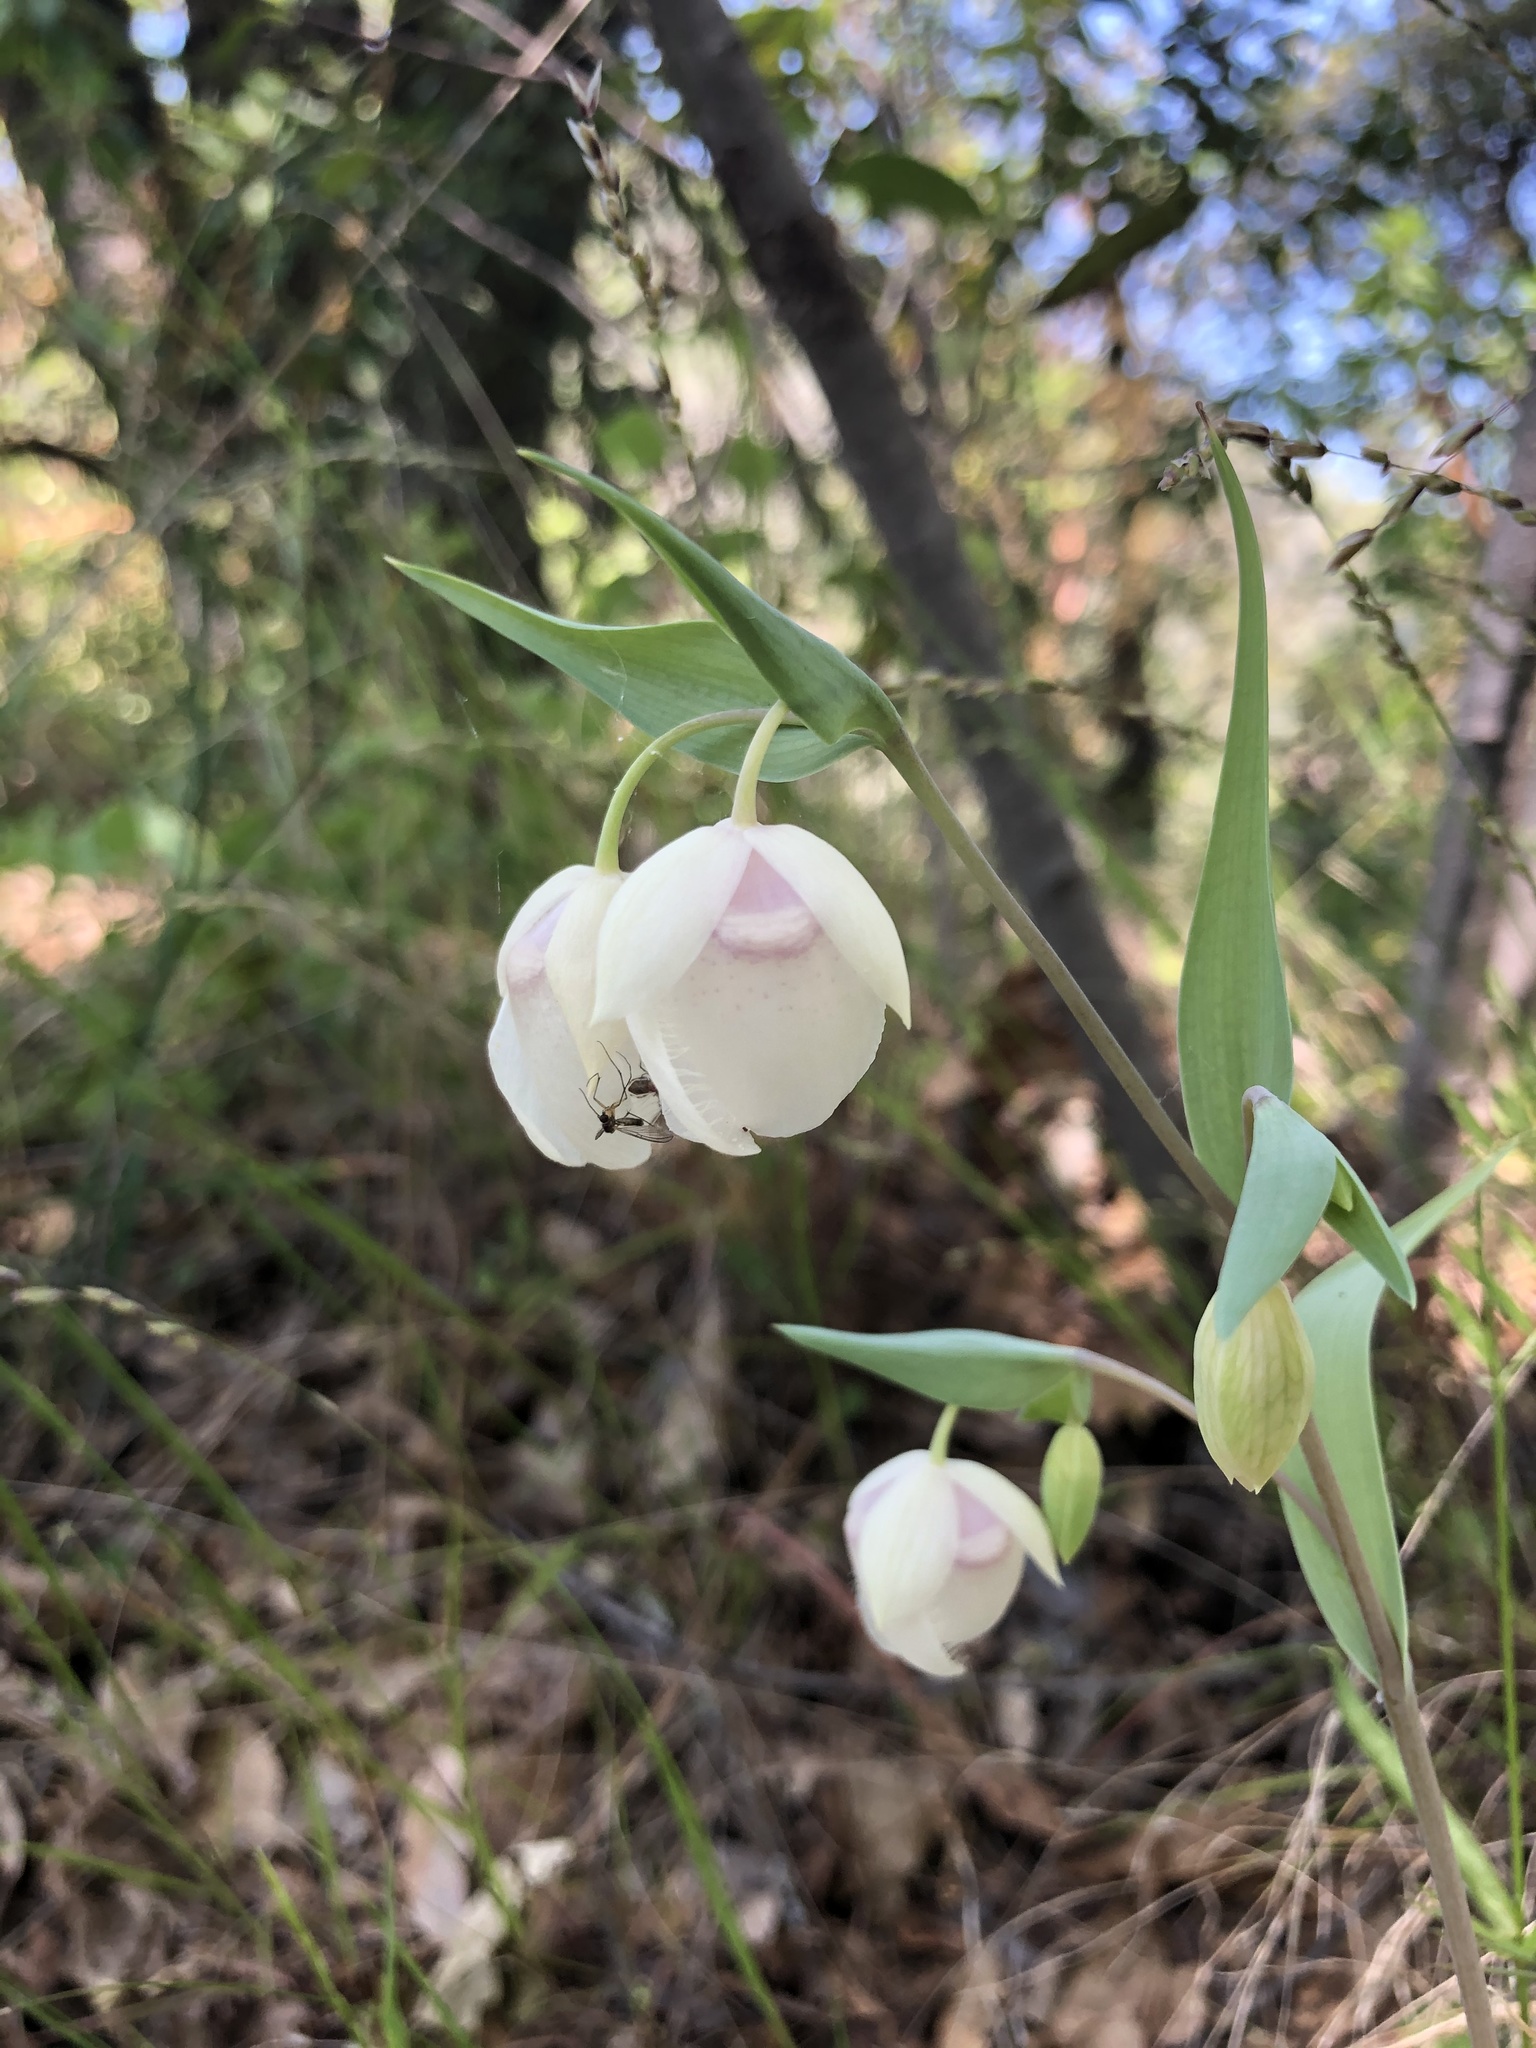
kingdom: Plantae
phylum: Tracheophyta
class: Liliopsida
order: Liliales
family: Liliaceae
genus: Calochortus
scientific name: Calochortus albus
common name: Fairy-lantern
